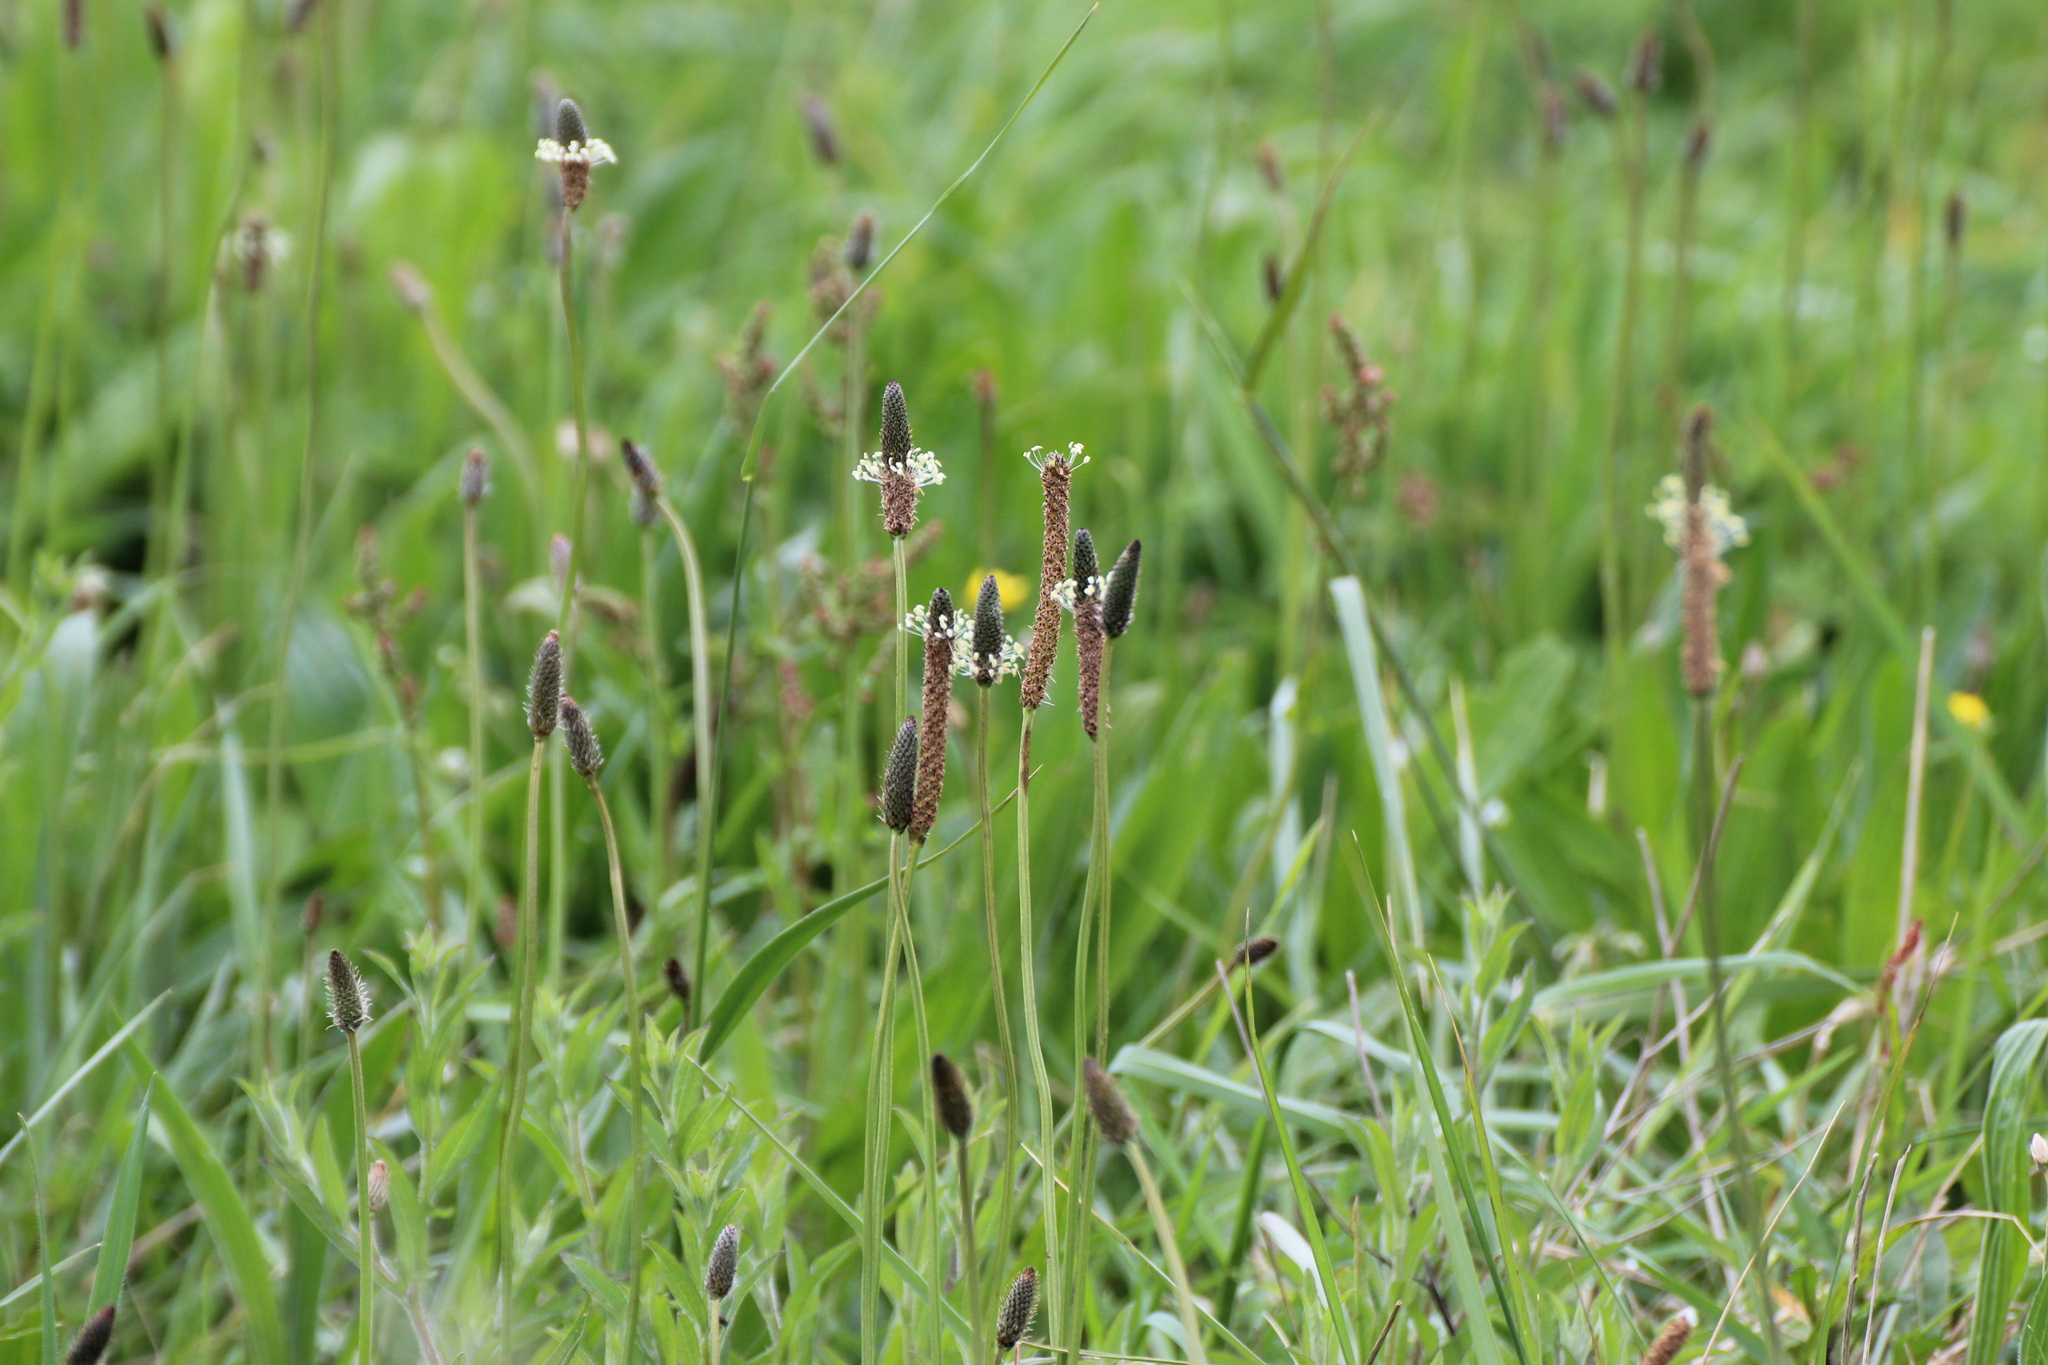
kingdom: Plantae
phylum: Tracheophyta
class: Magnoliopsida
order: Lamiales
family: Plantaginaceae
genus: Plantago
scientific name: Plantago lanceolata
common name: Ribwort plantain
